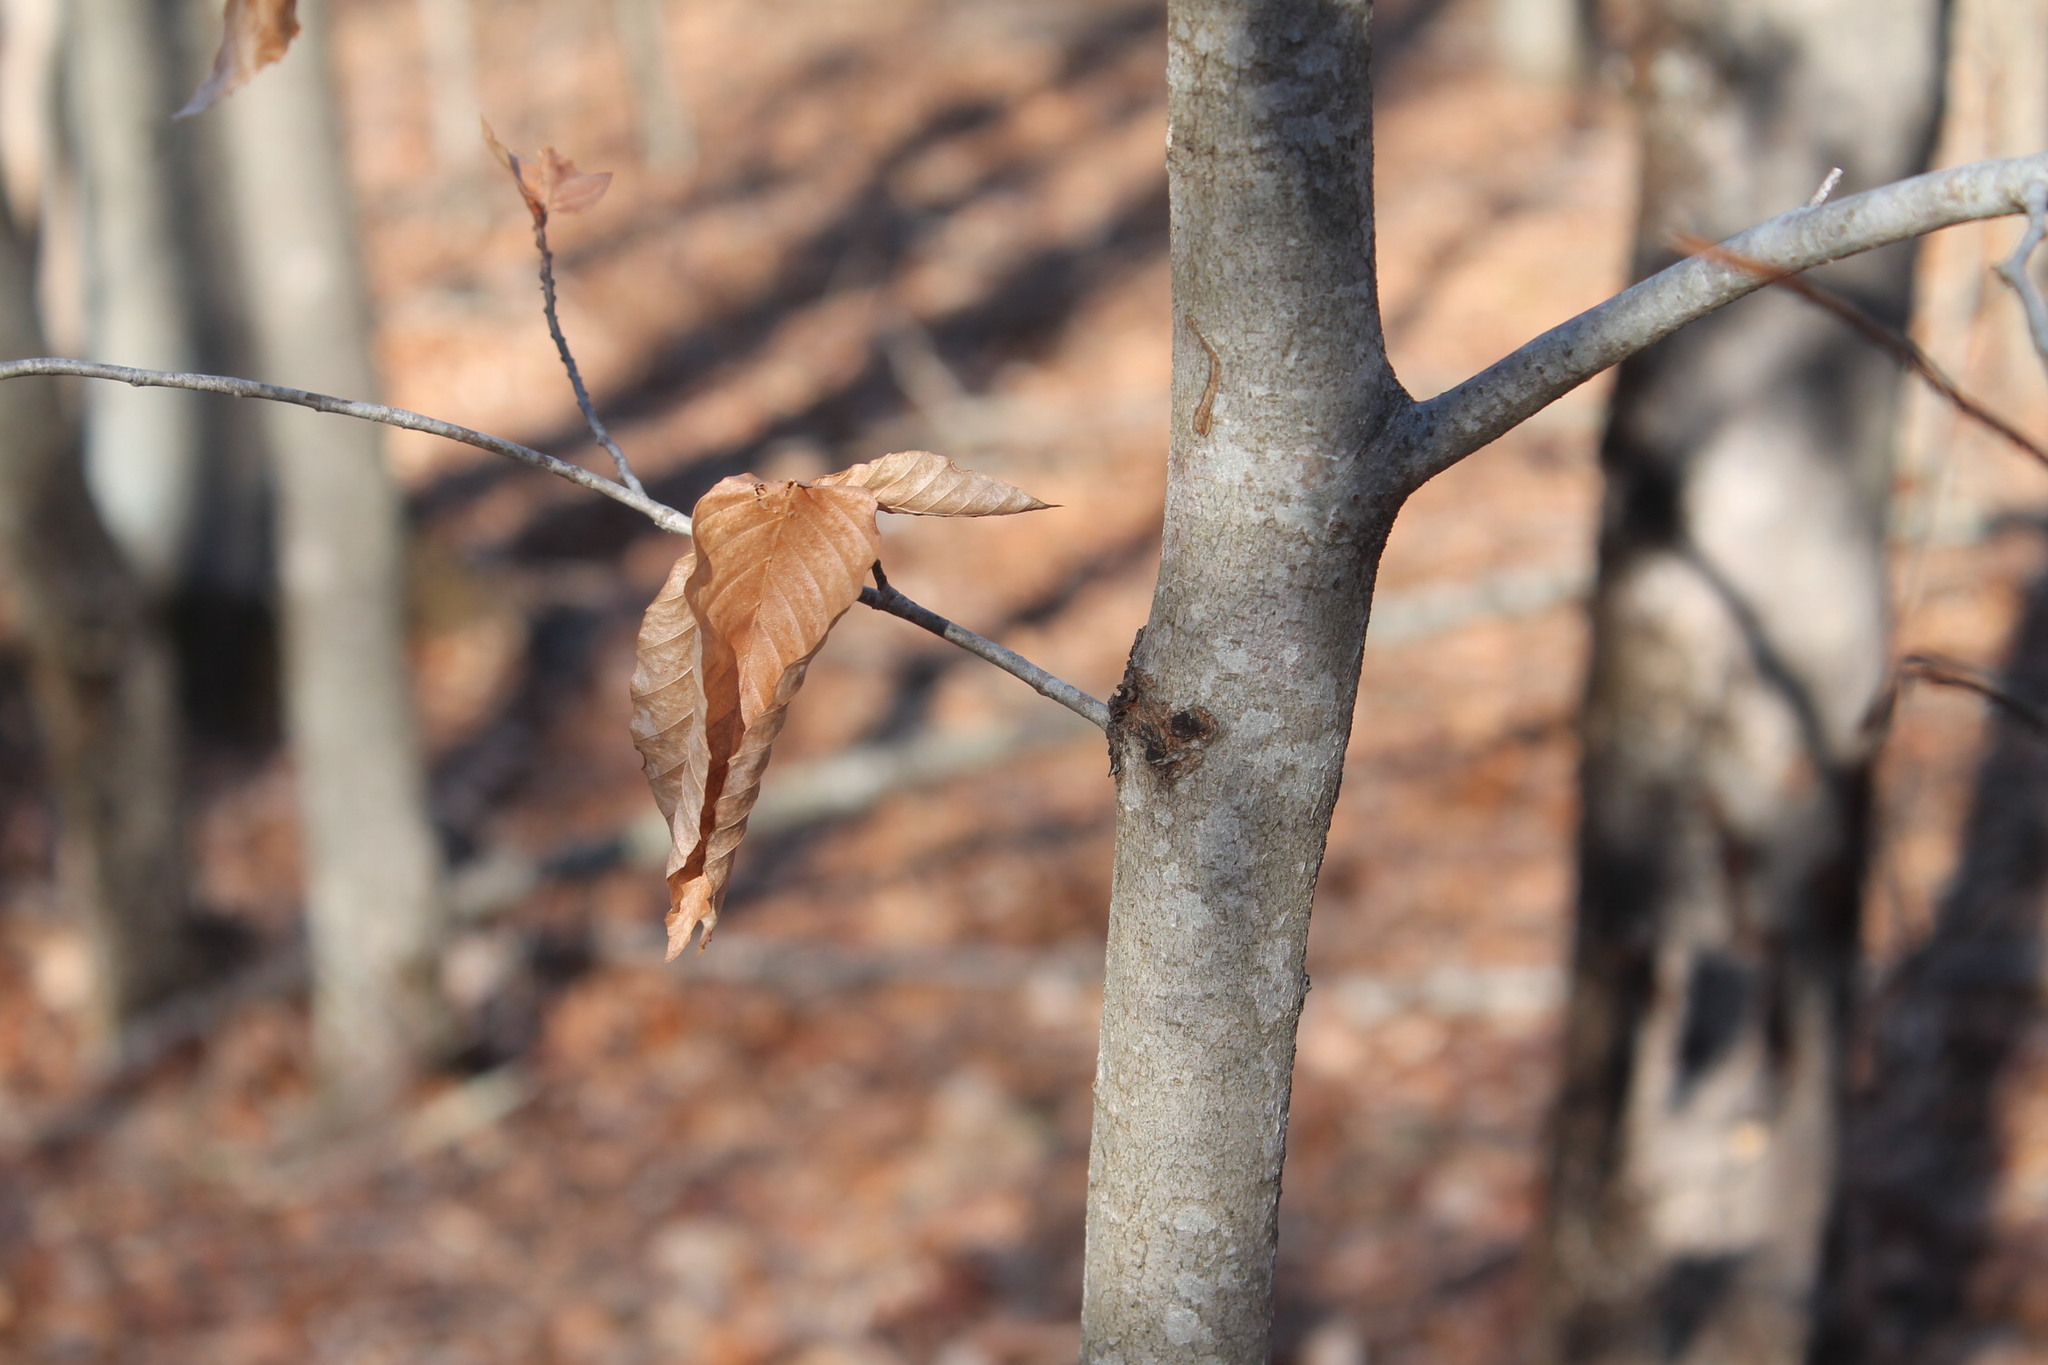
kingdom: Plantae
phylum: Tracheophyta
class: Magnoliopsida
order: Fagales
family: Fagaceae
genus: Fagus
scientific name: Fagus grandifolia
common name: American beech
